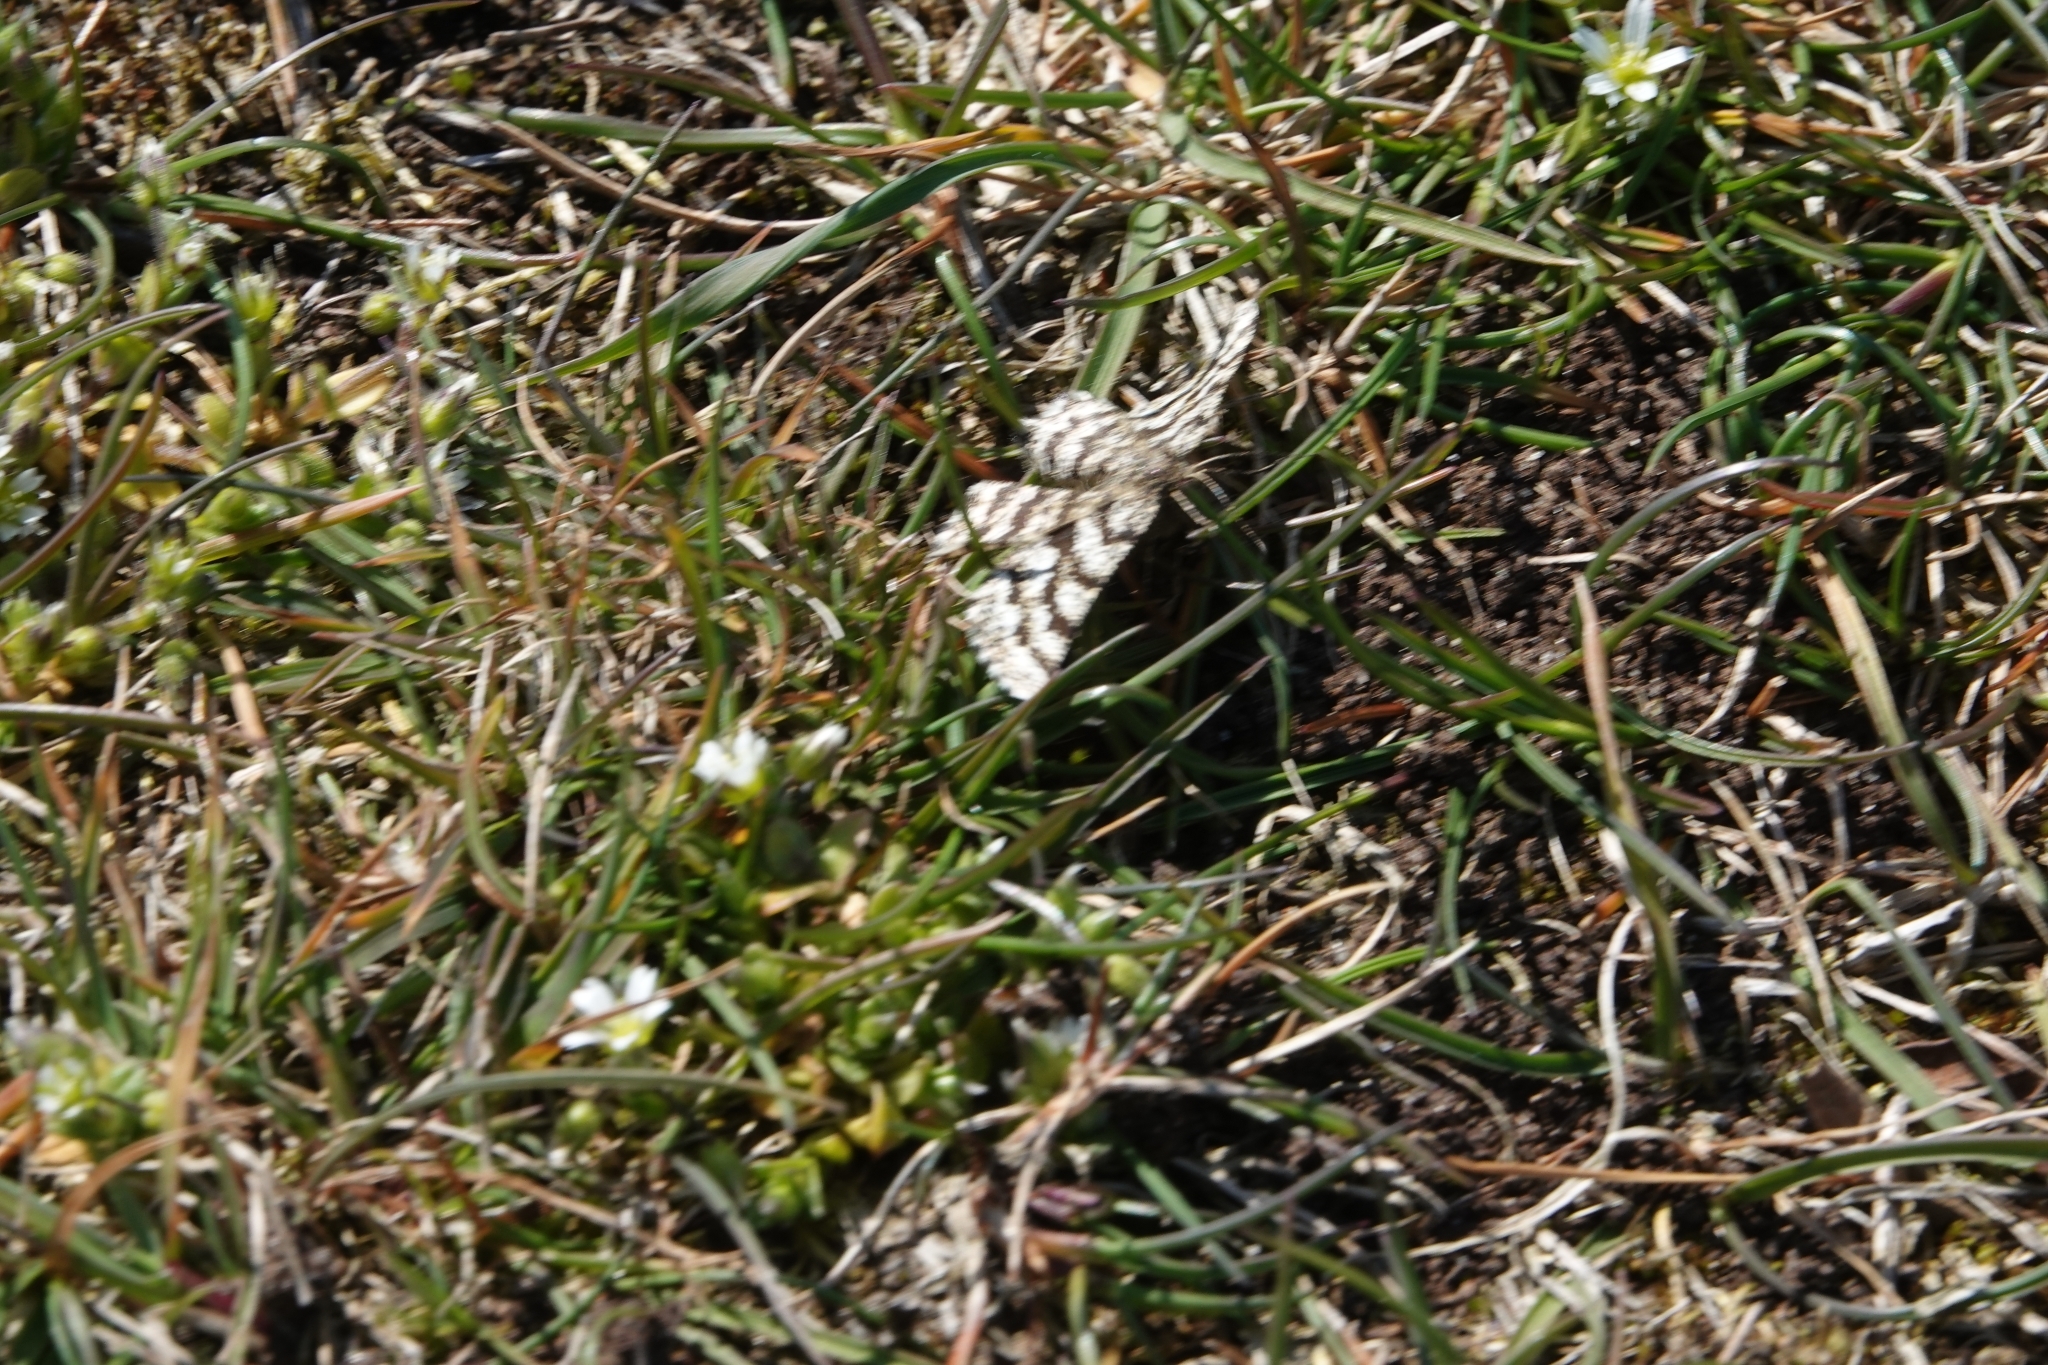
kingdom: Animalia
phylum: Arthropoda
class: Insecta
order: Lepidoptera
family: Geometridae
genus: Ematurga
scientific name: Ematurga atomaria
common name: Common heath
